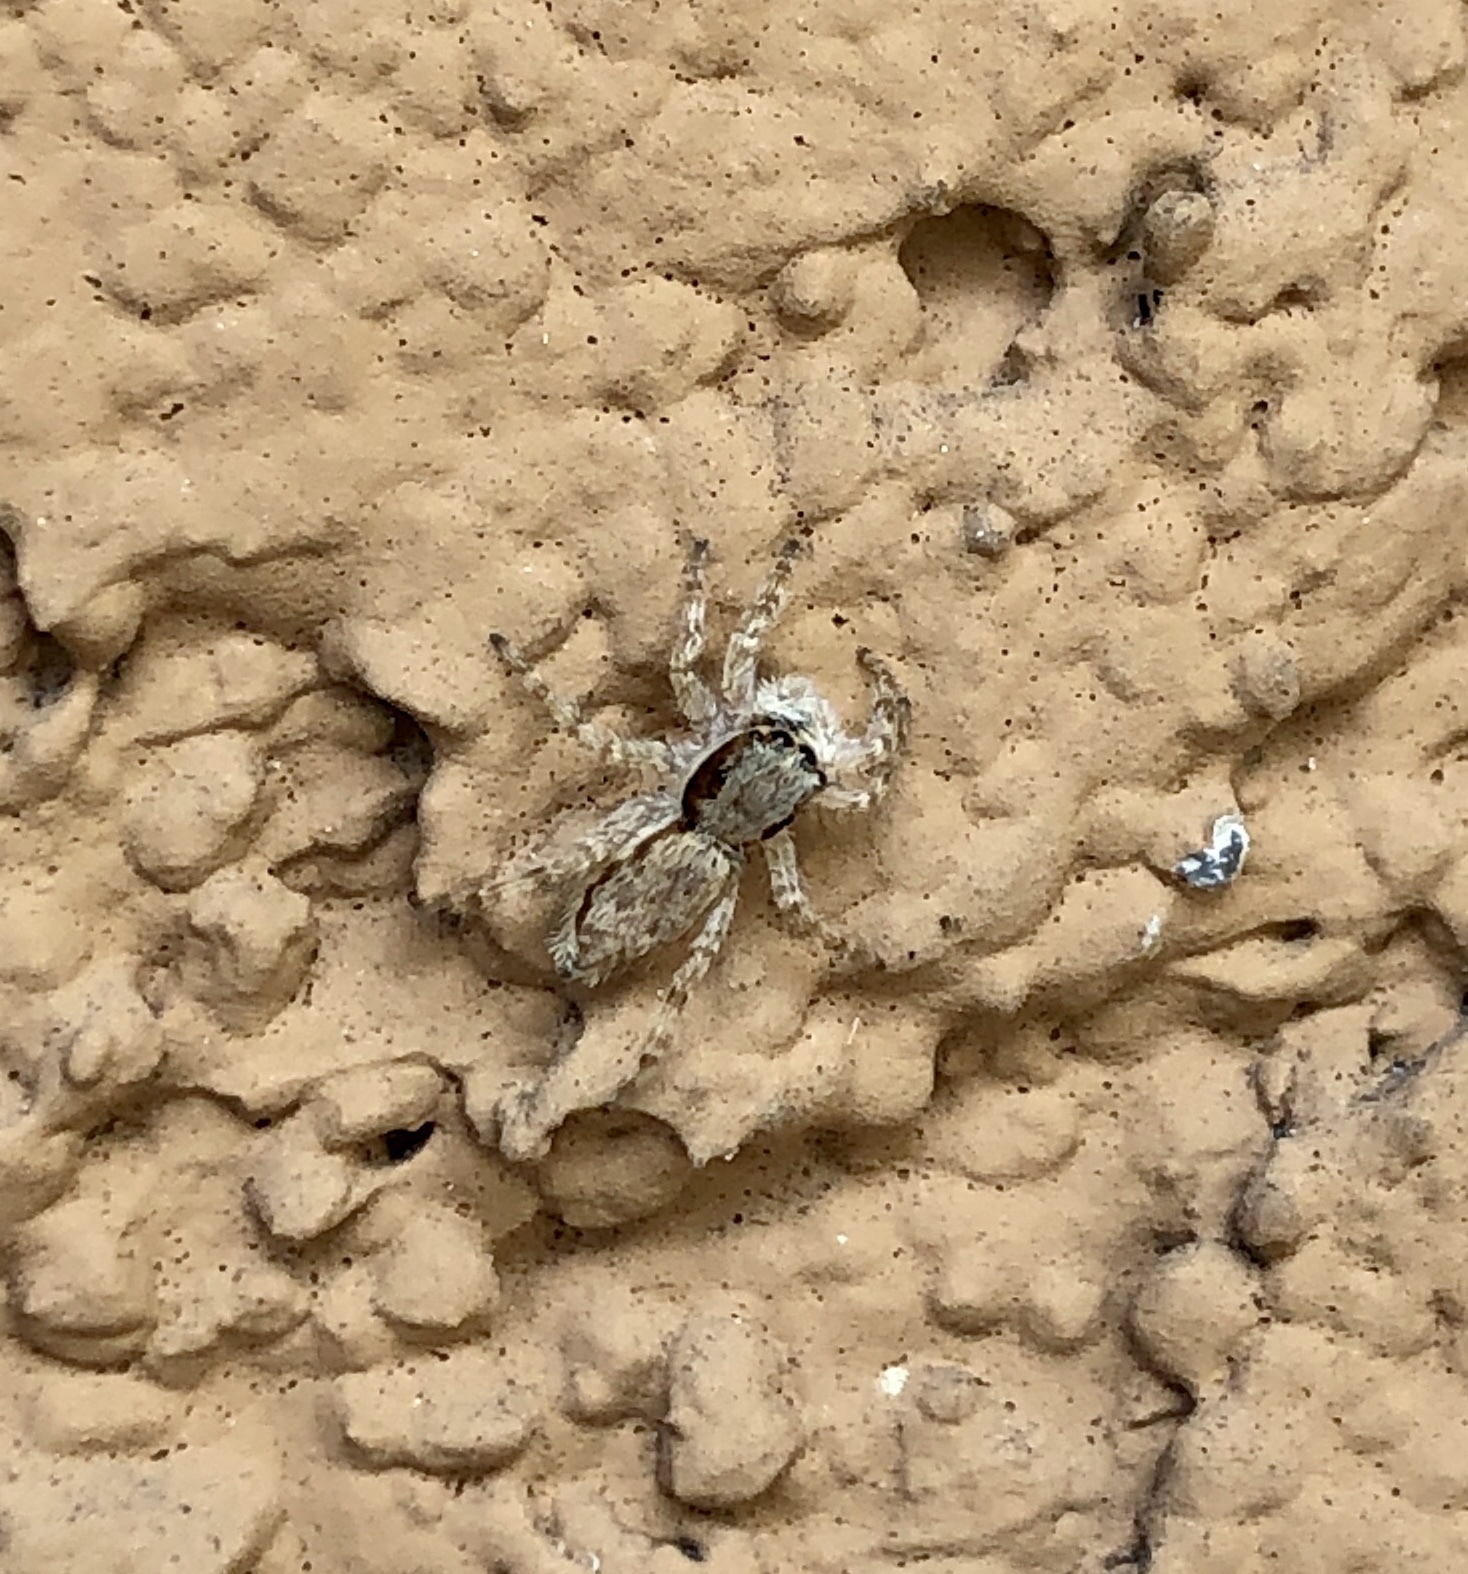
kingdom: Animalia
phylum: Arthropoda
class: Arachnida
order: Araneae
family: Salticidae
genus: Menemerus
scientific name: Menemerus bivittatus
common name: Gray wall jumper
